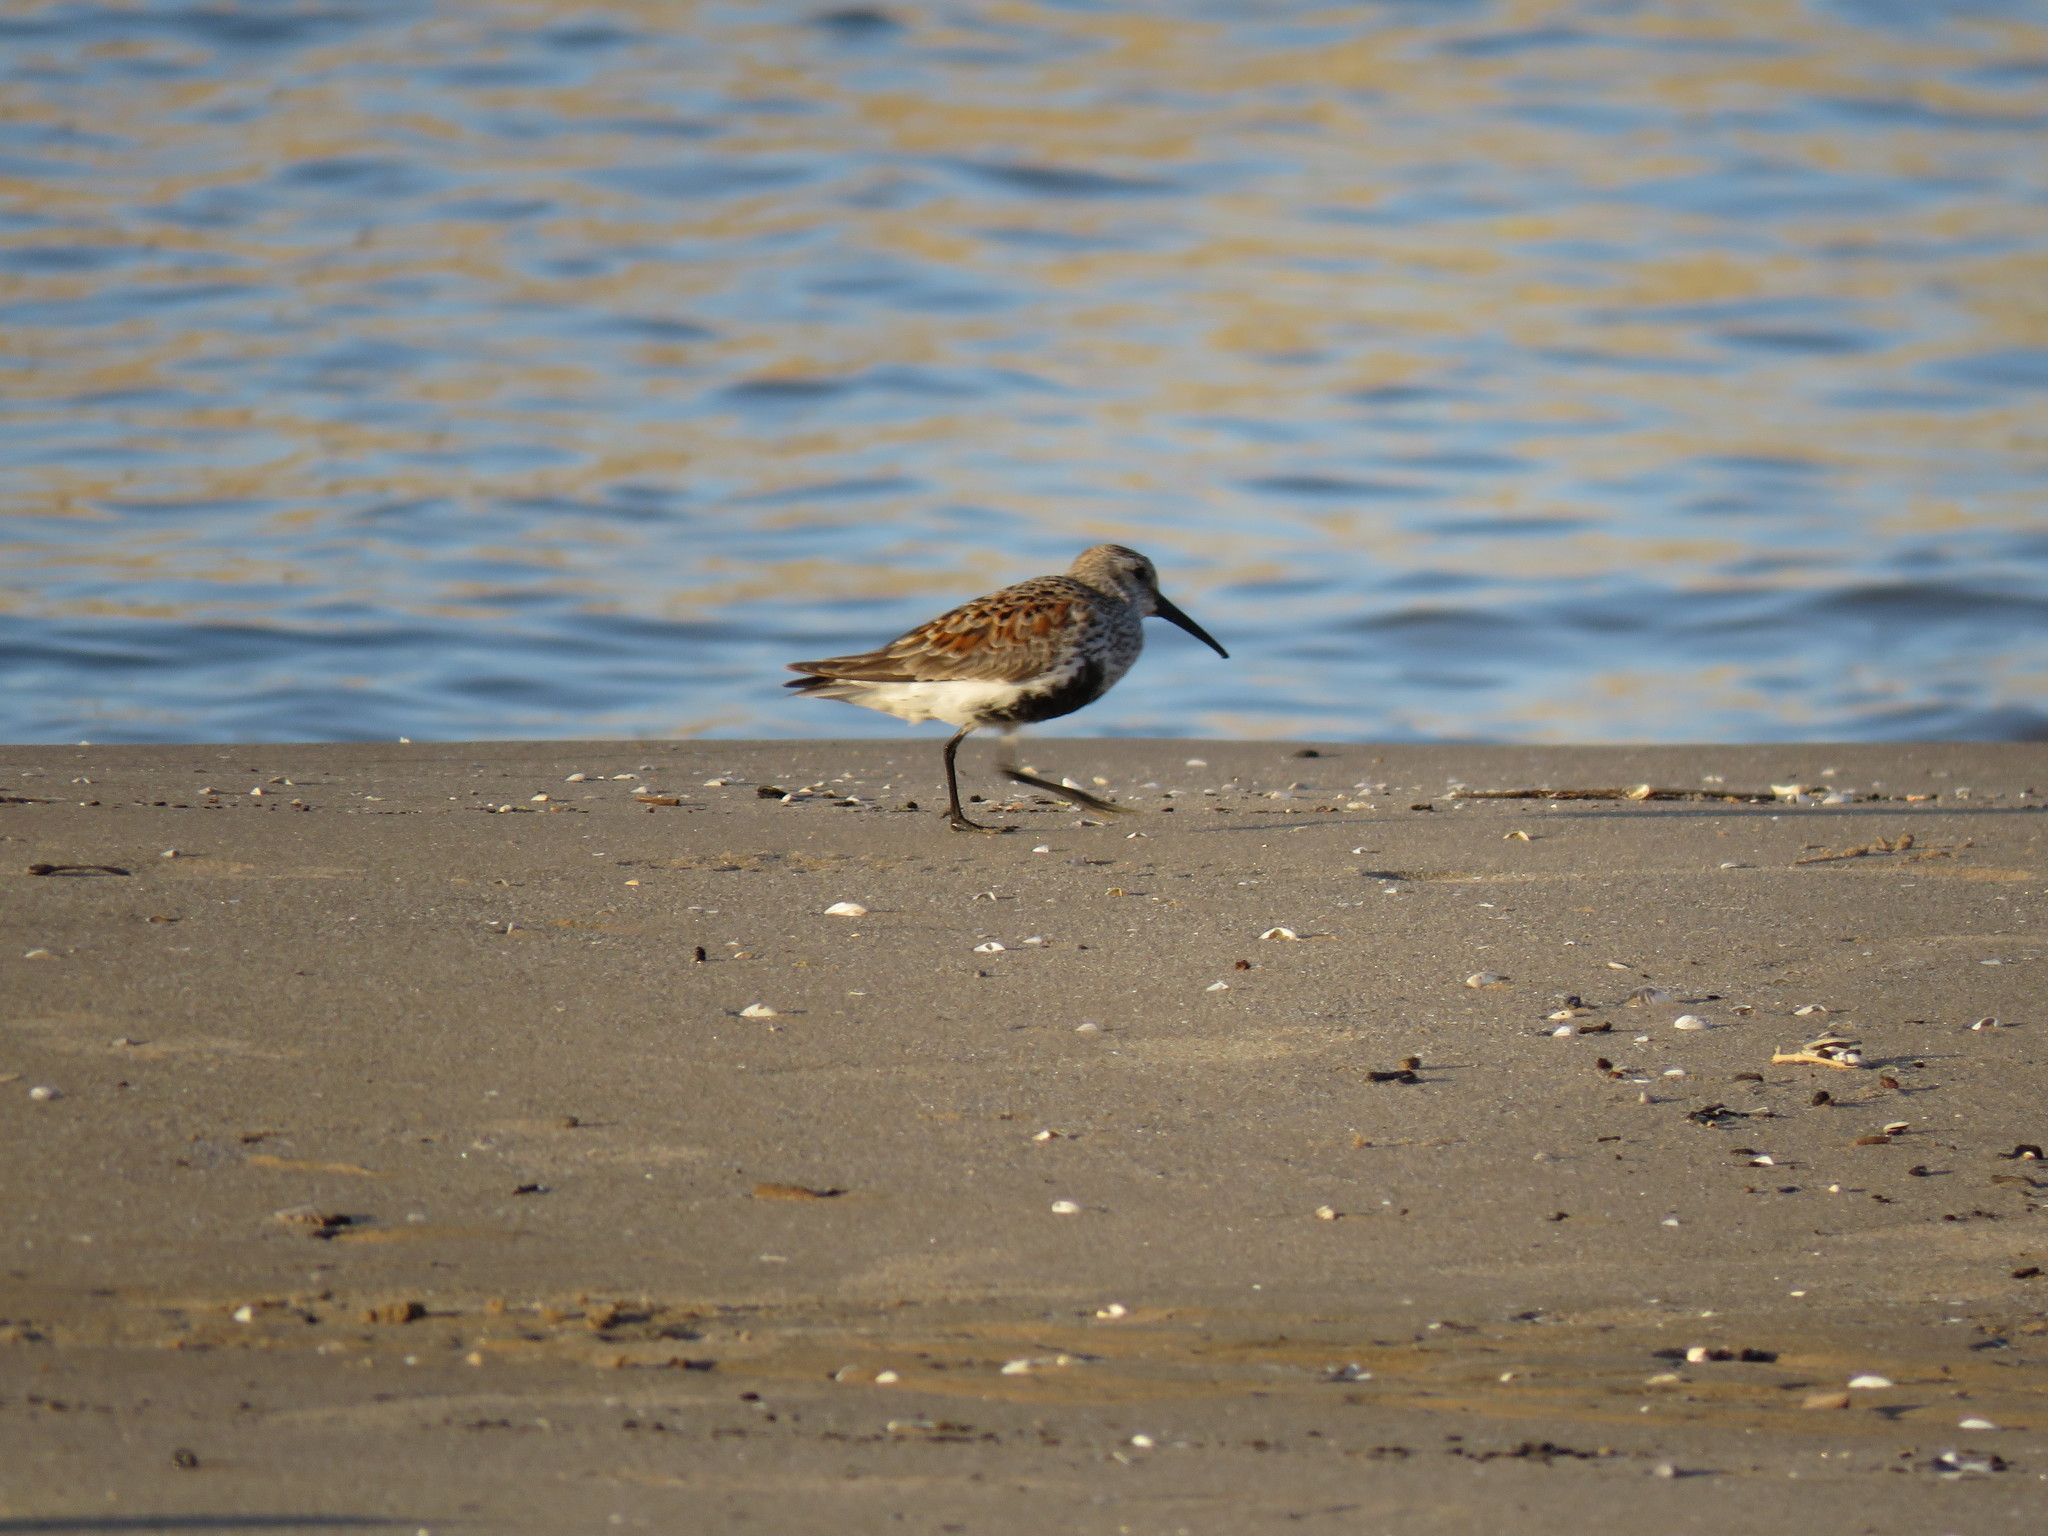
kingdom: Animalia
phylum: Chordata
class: Aves
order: Charadriiformes
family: Scolopacidae
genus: Calidris
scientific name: Calidris alpina
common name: Dunlin
